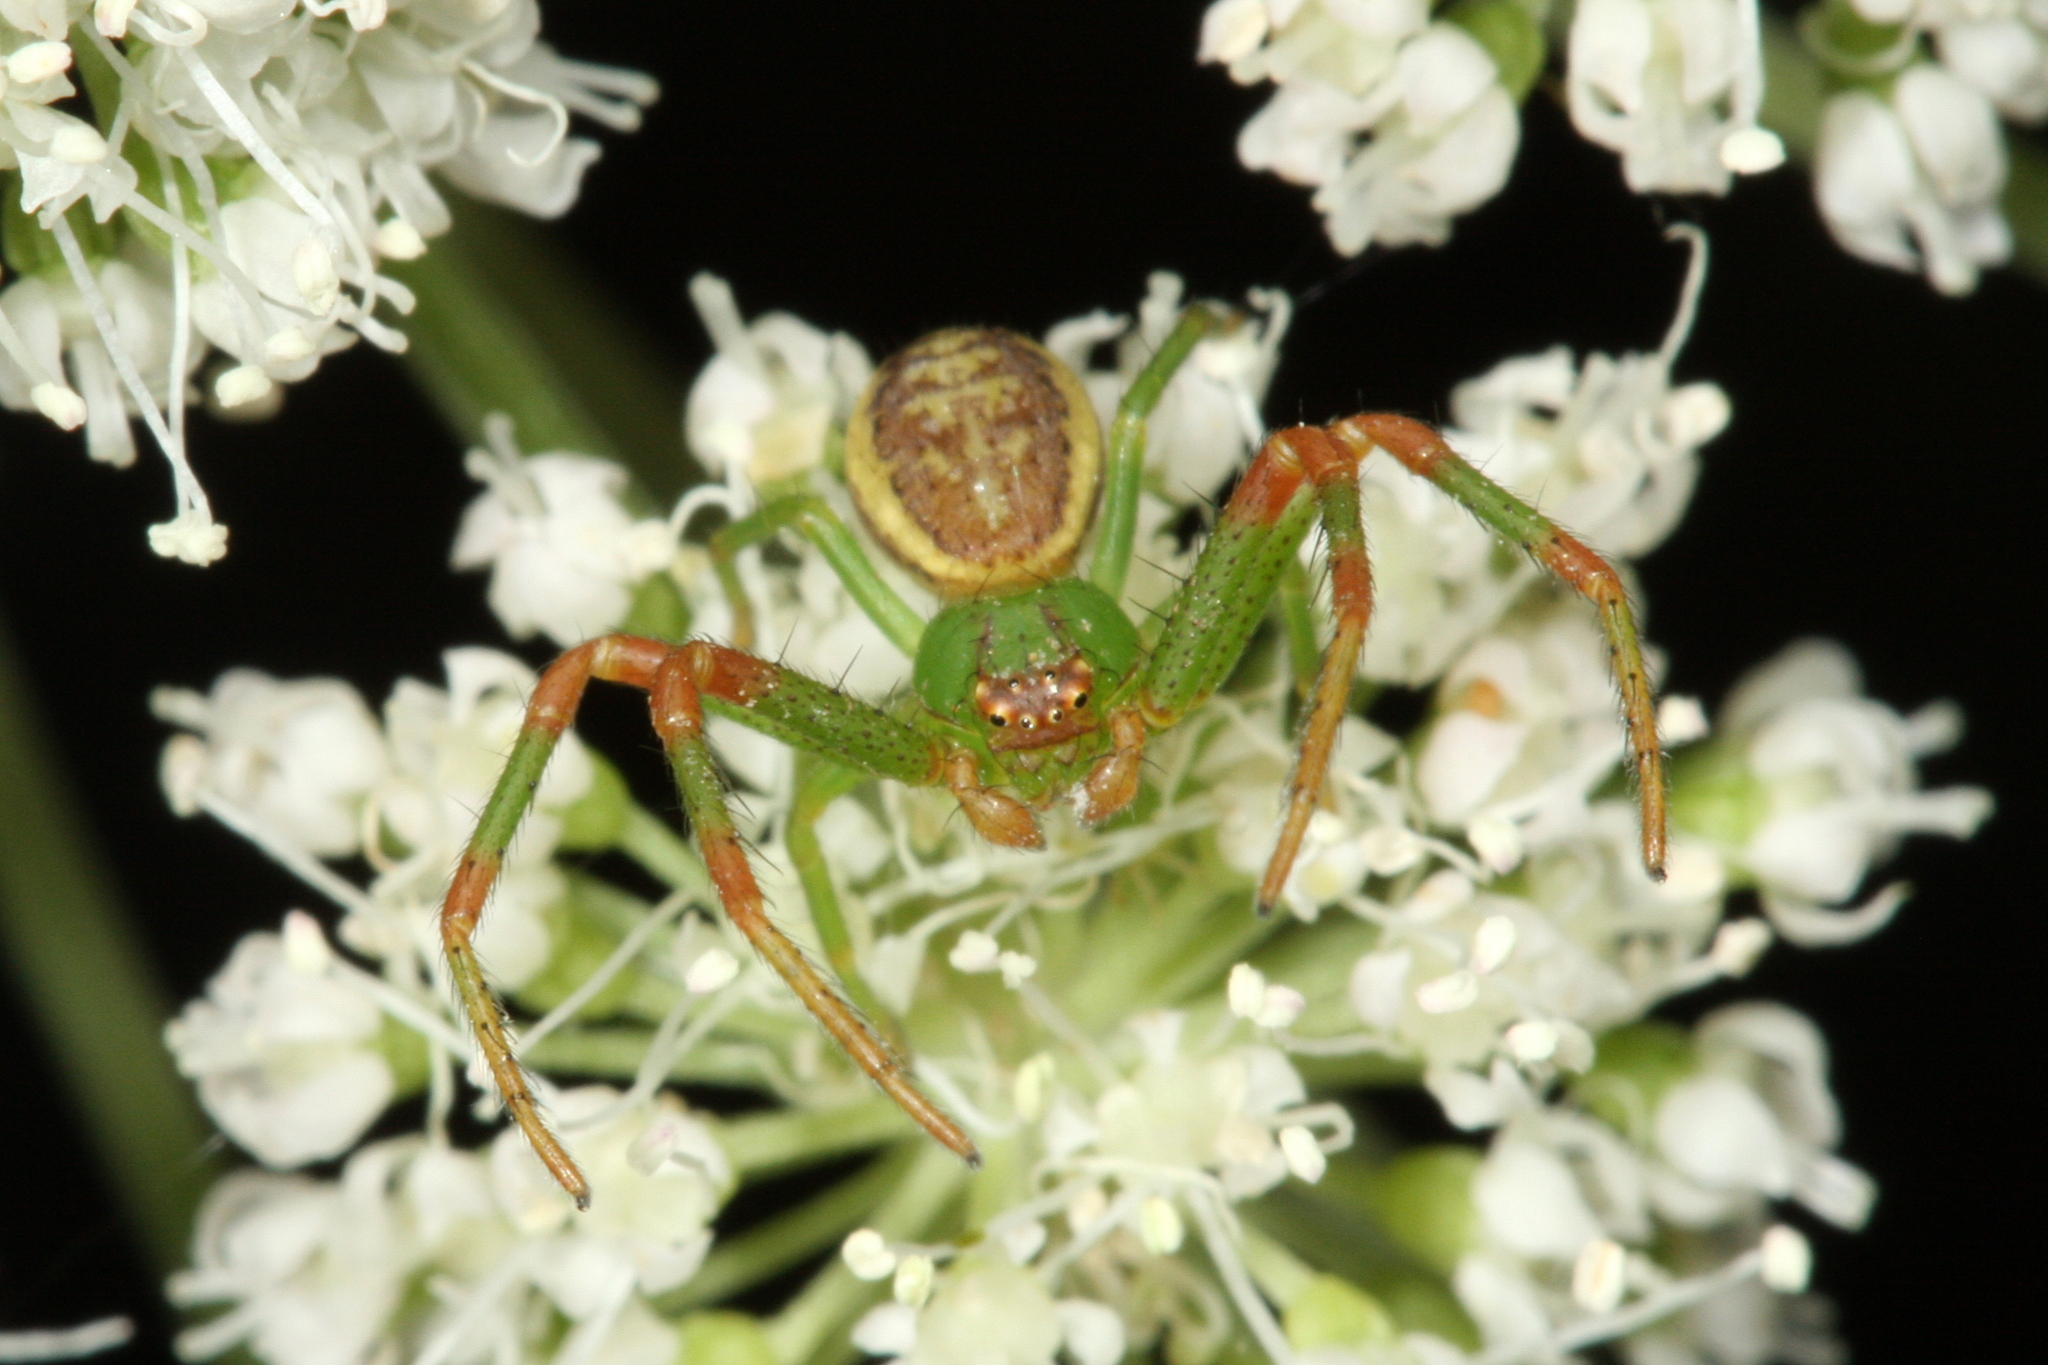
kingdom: Animalia
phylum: Arthropoda
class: Arachnida
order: Araneae
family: Thomisidae
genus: Diaea
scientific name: Diaea dorsata
